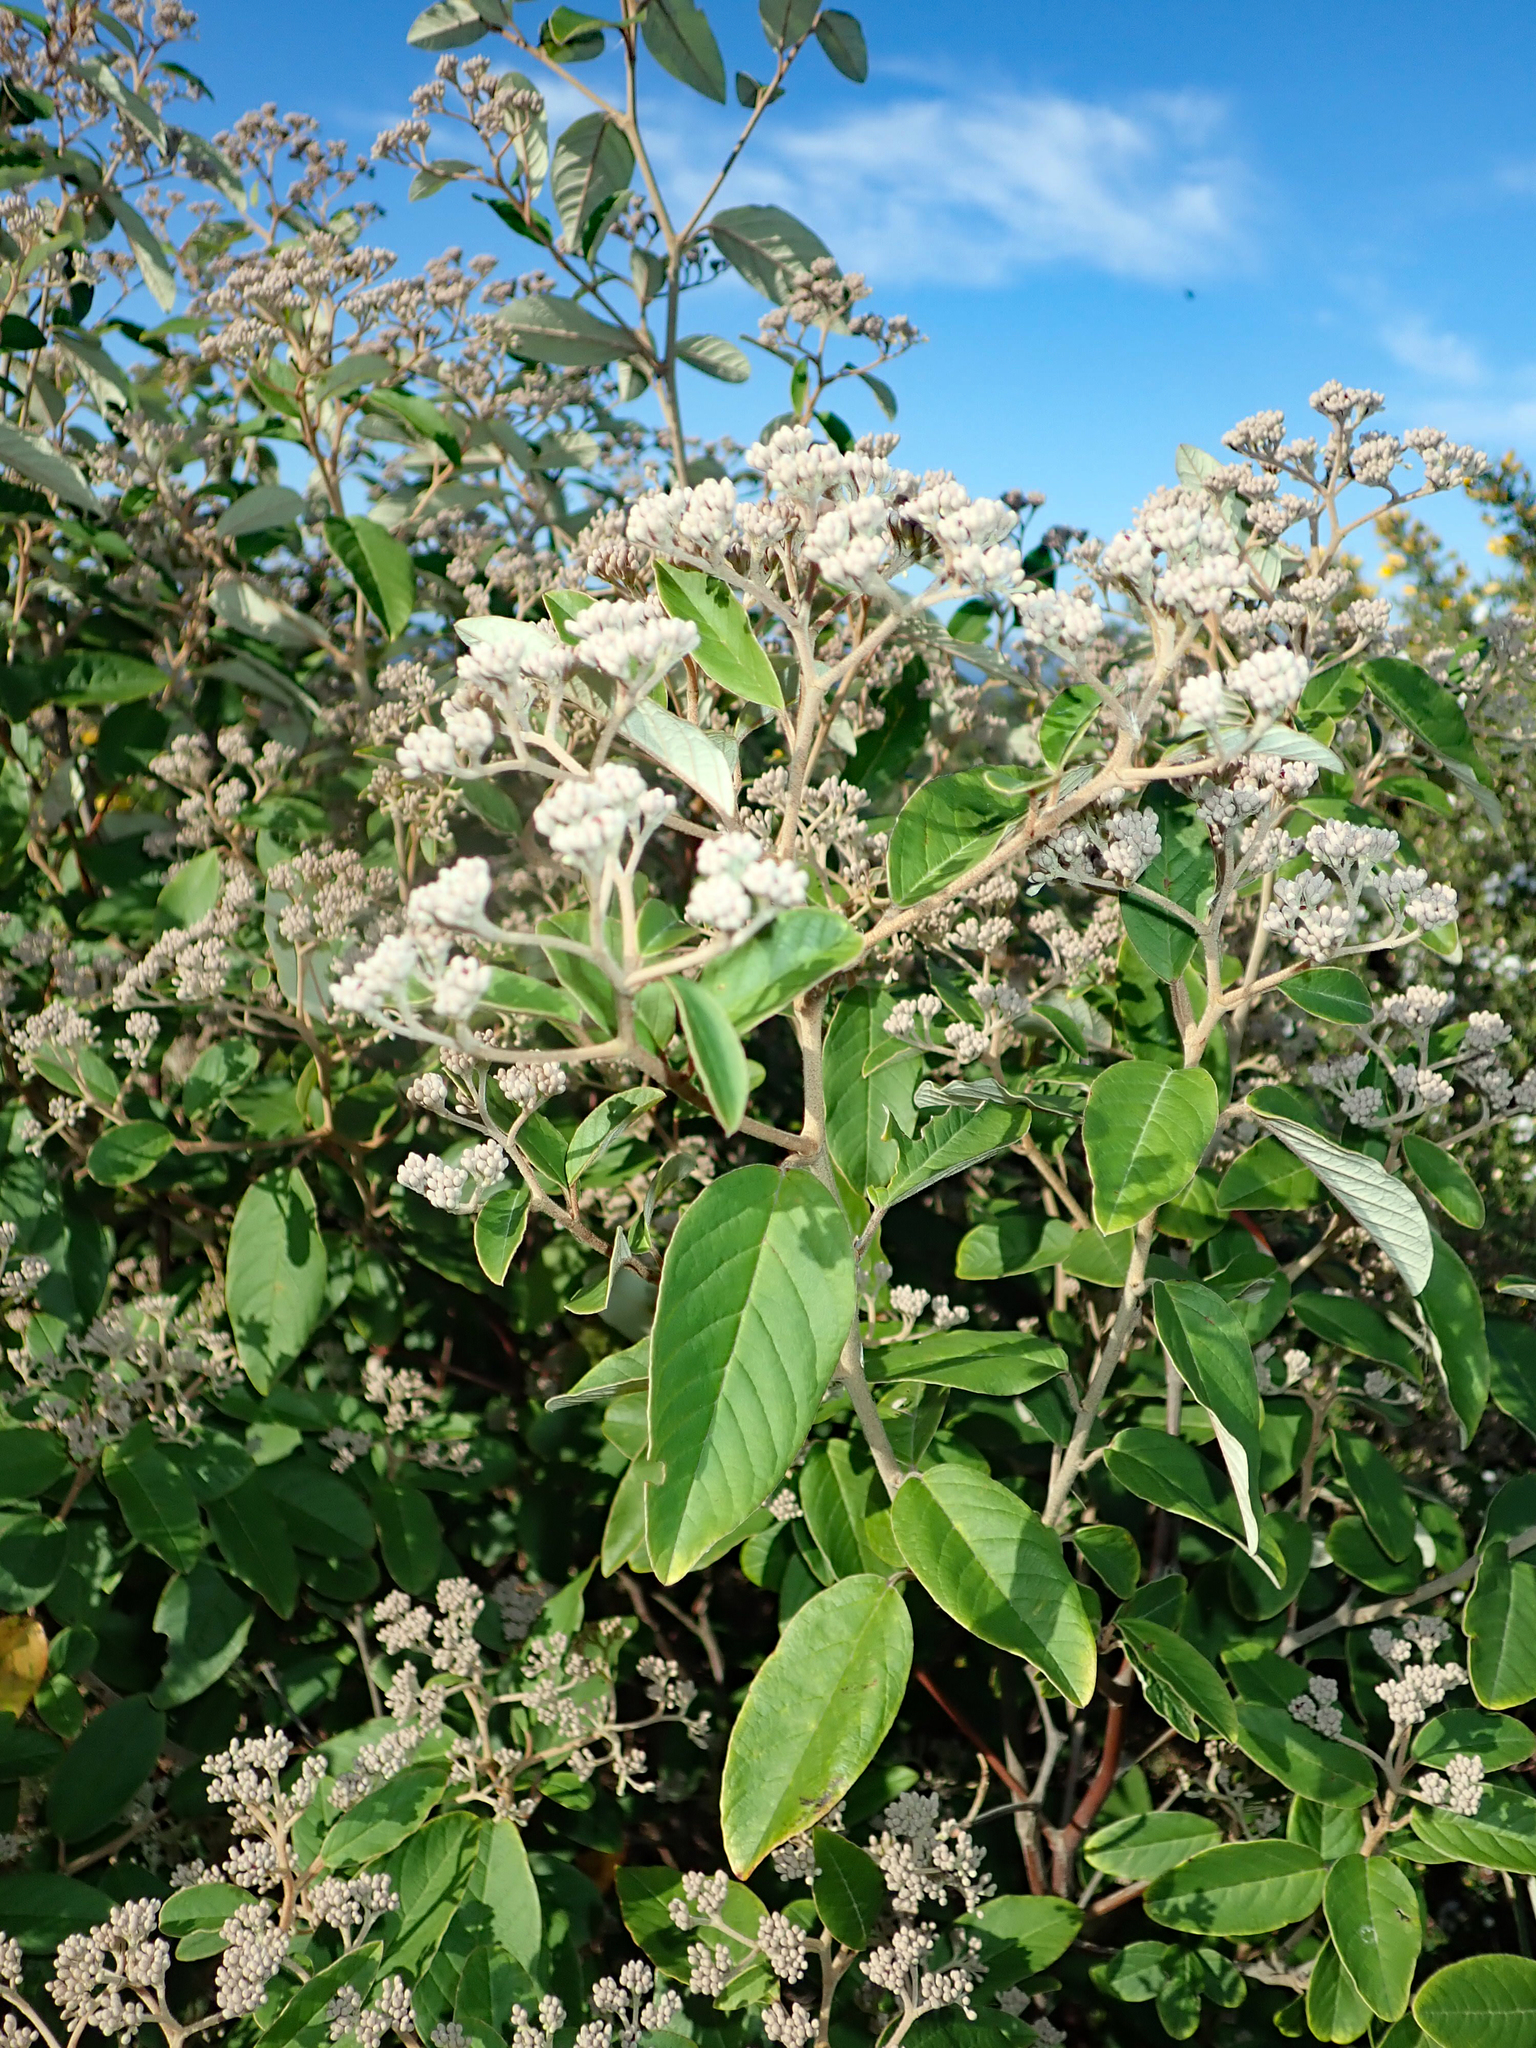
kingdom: Plantae
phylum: Tracheophyta
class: Magnoliopsida
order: Rosales
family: Rhamnaceae
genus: Pomaderris
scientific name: Pomaderris kumeraho
